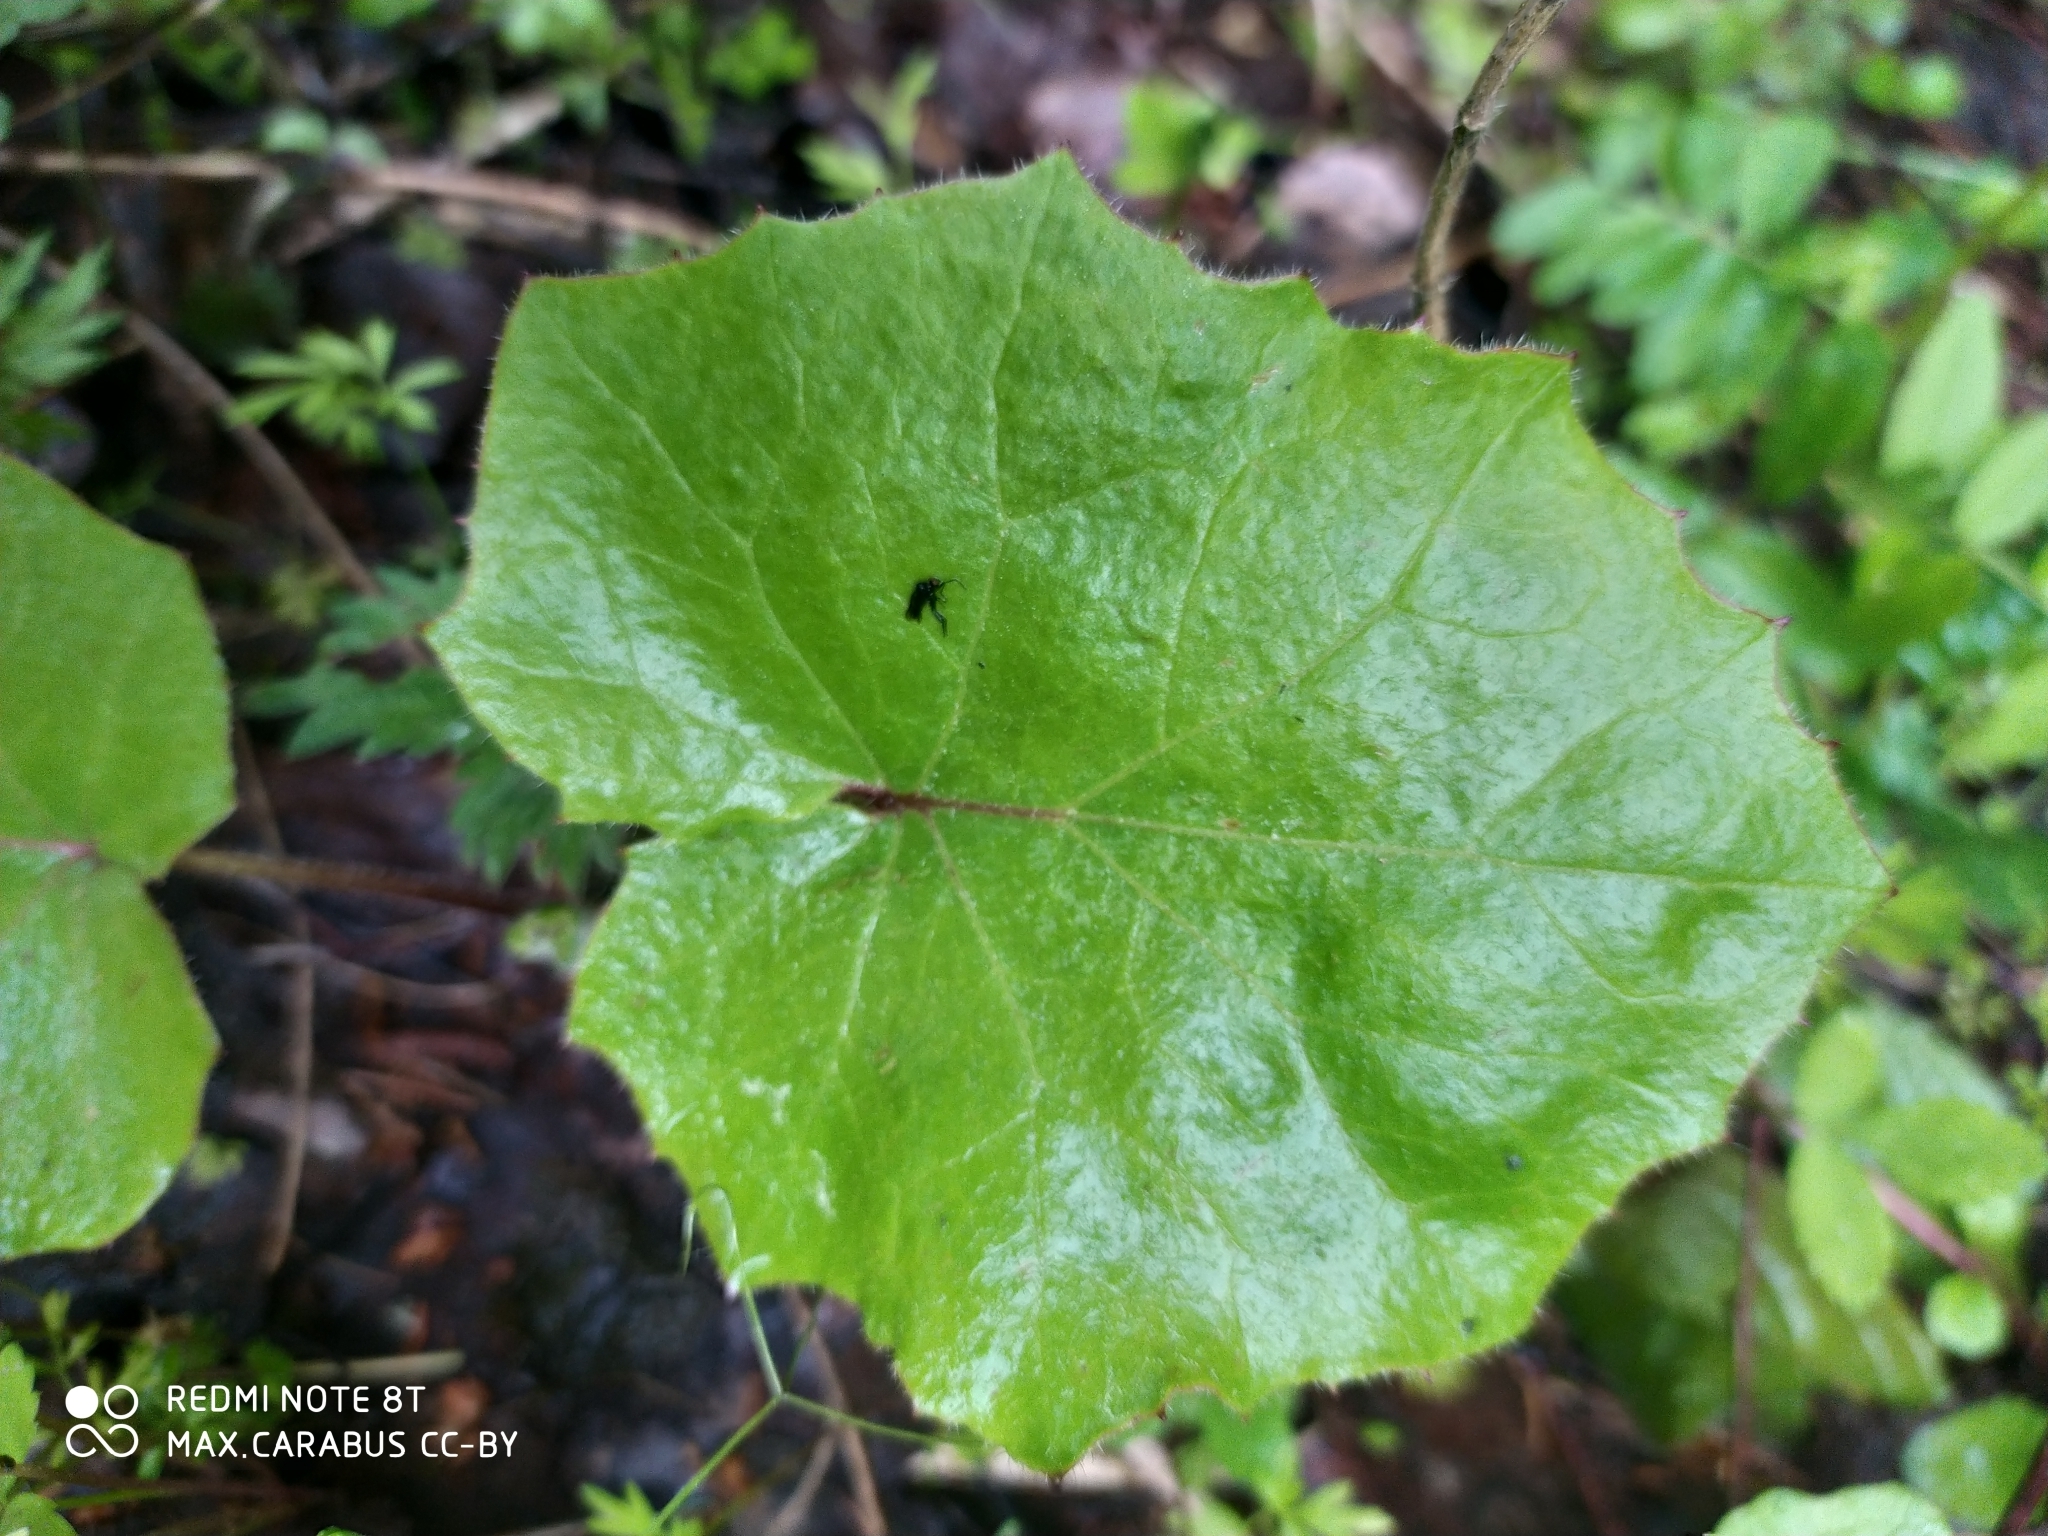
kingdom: Plantae
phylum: Tracheophyta
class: Magnoliopsida
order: Asterales
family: Asteraceae
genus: Tussilago
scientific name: Tussilago farfara
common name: Coltsfoot
